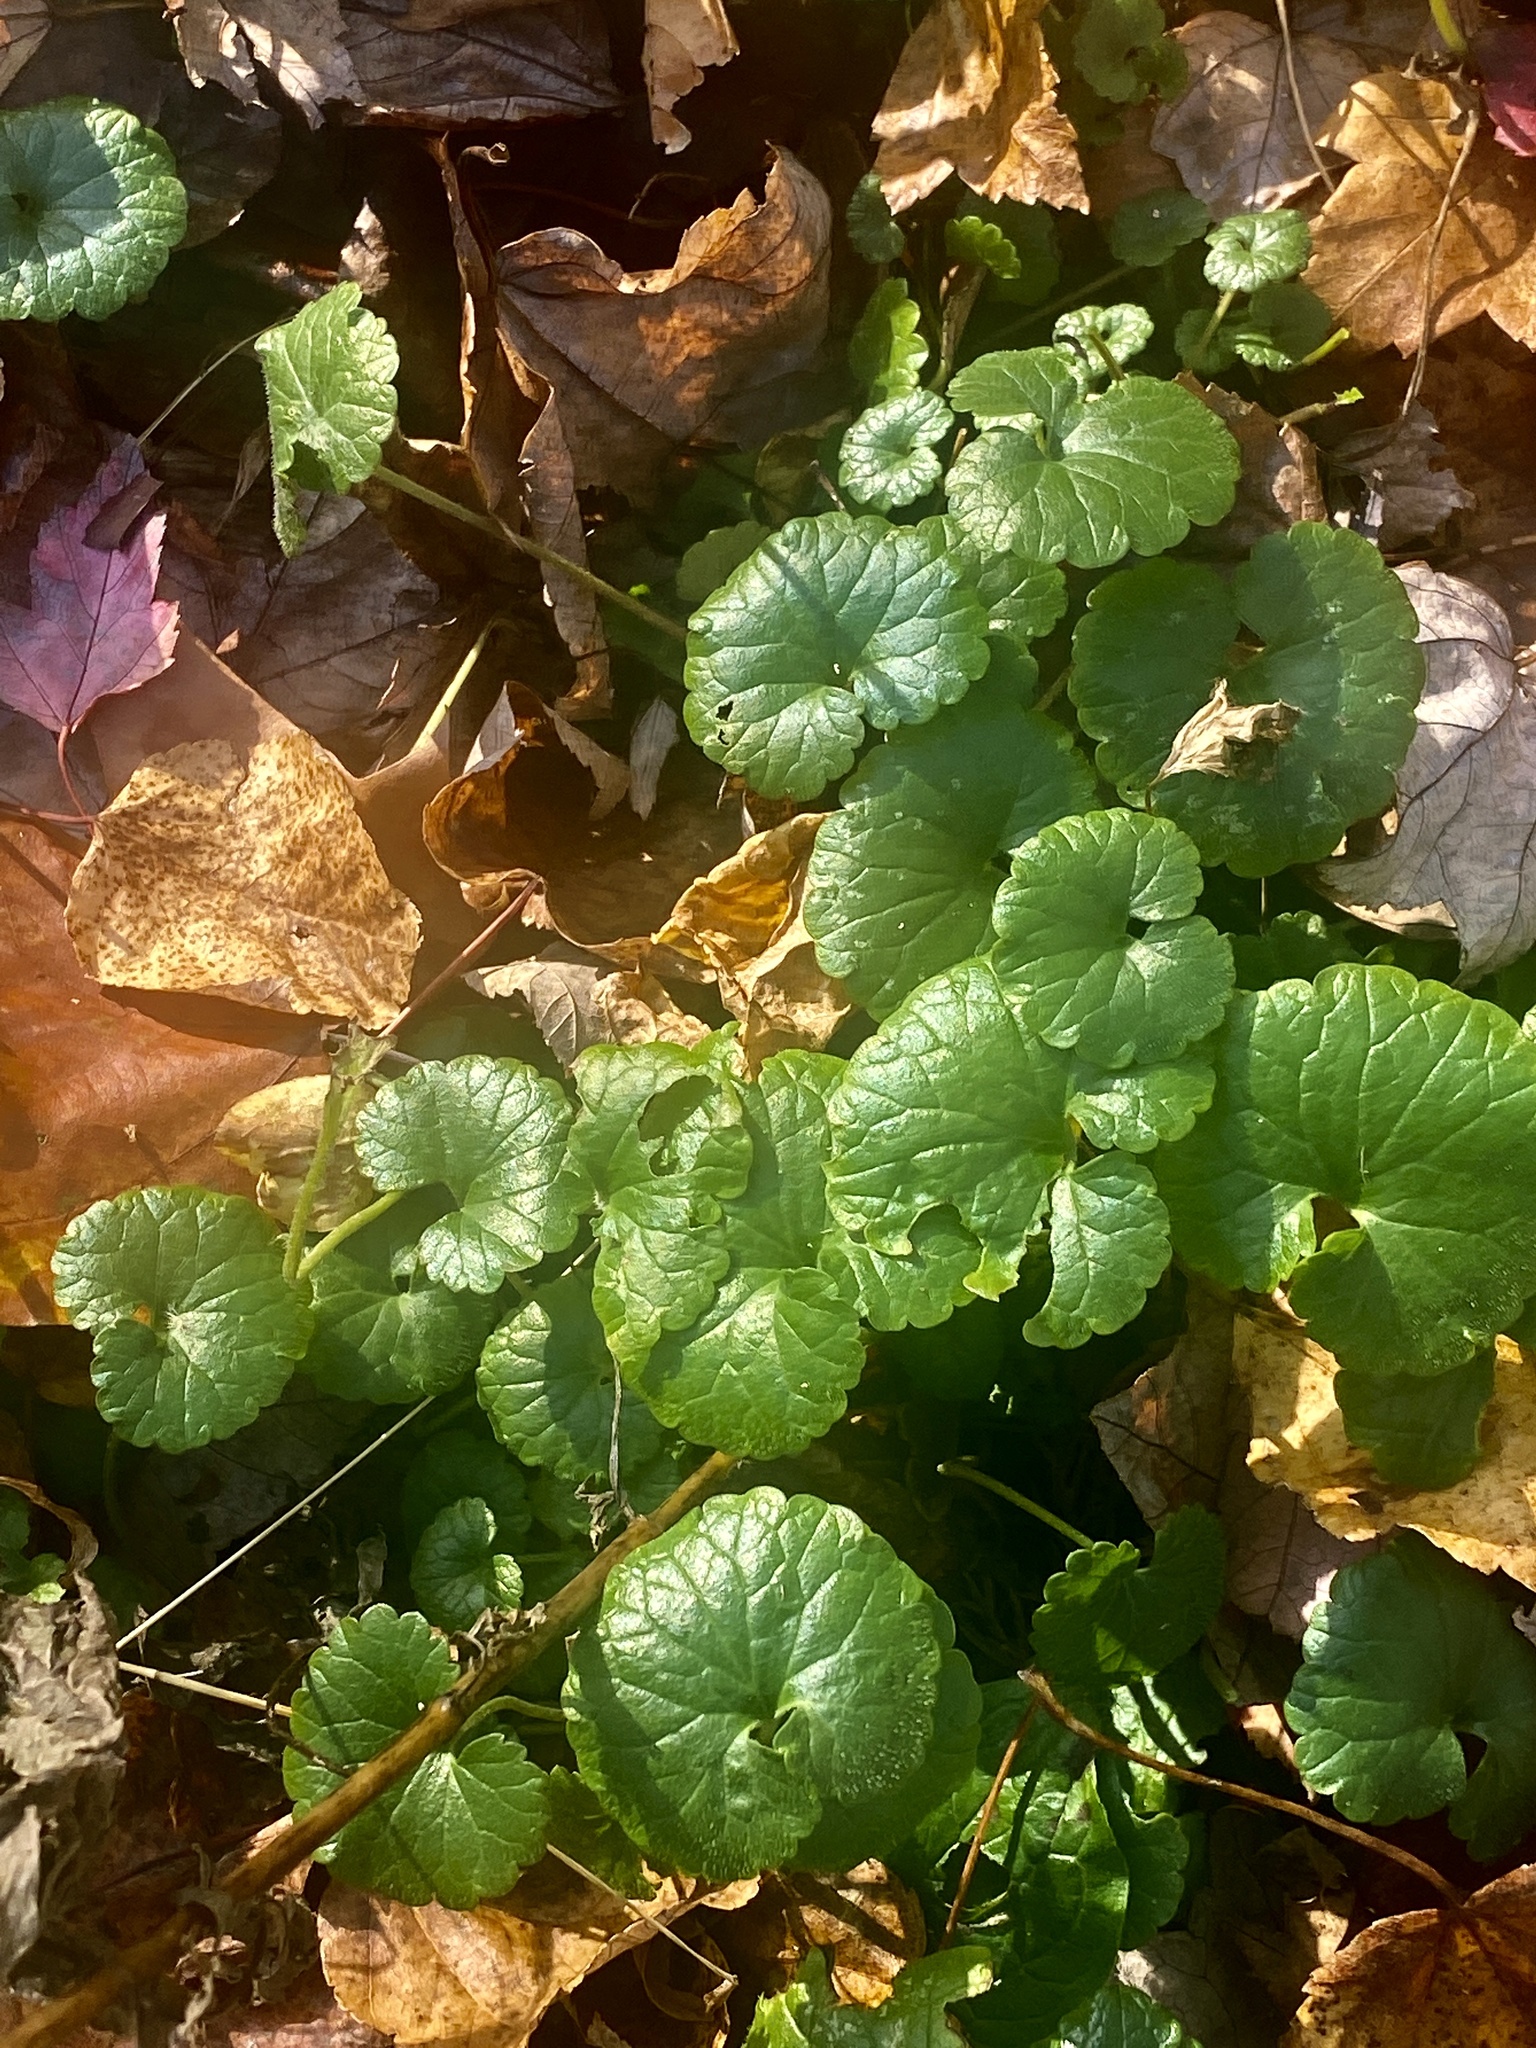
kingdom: Plantae
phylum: Tracheophyta
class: Magnoliopsida
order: Lamiales
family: Lamiaceae
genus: Glechoma
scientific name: Glechoma hederacea
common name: Ground ivy
